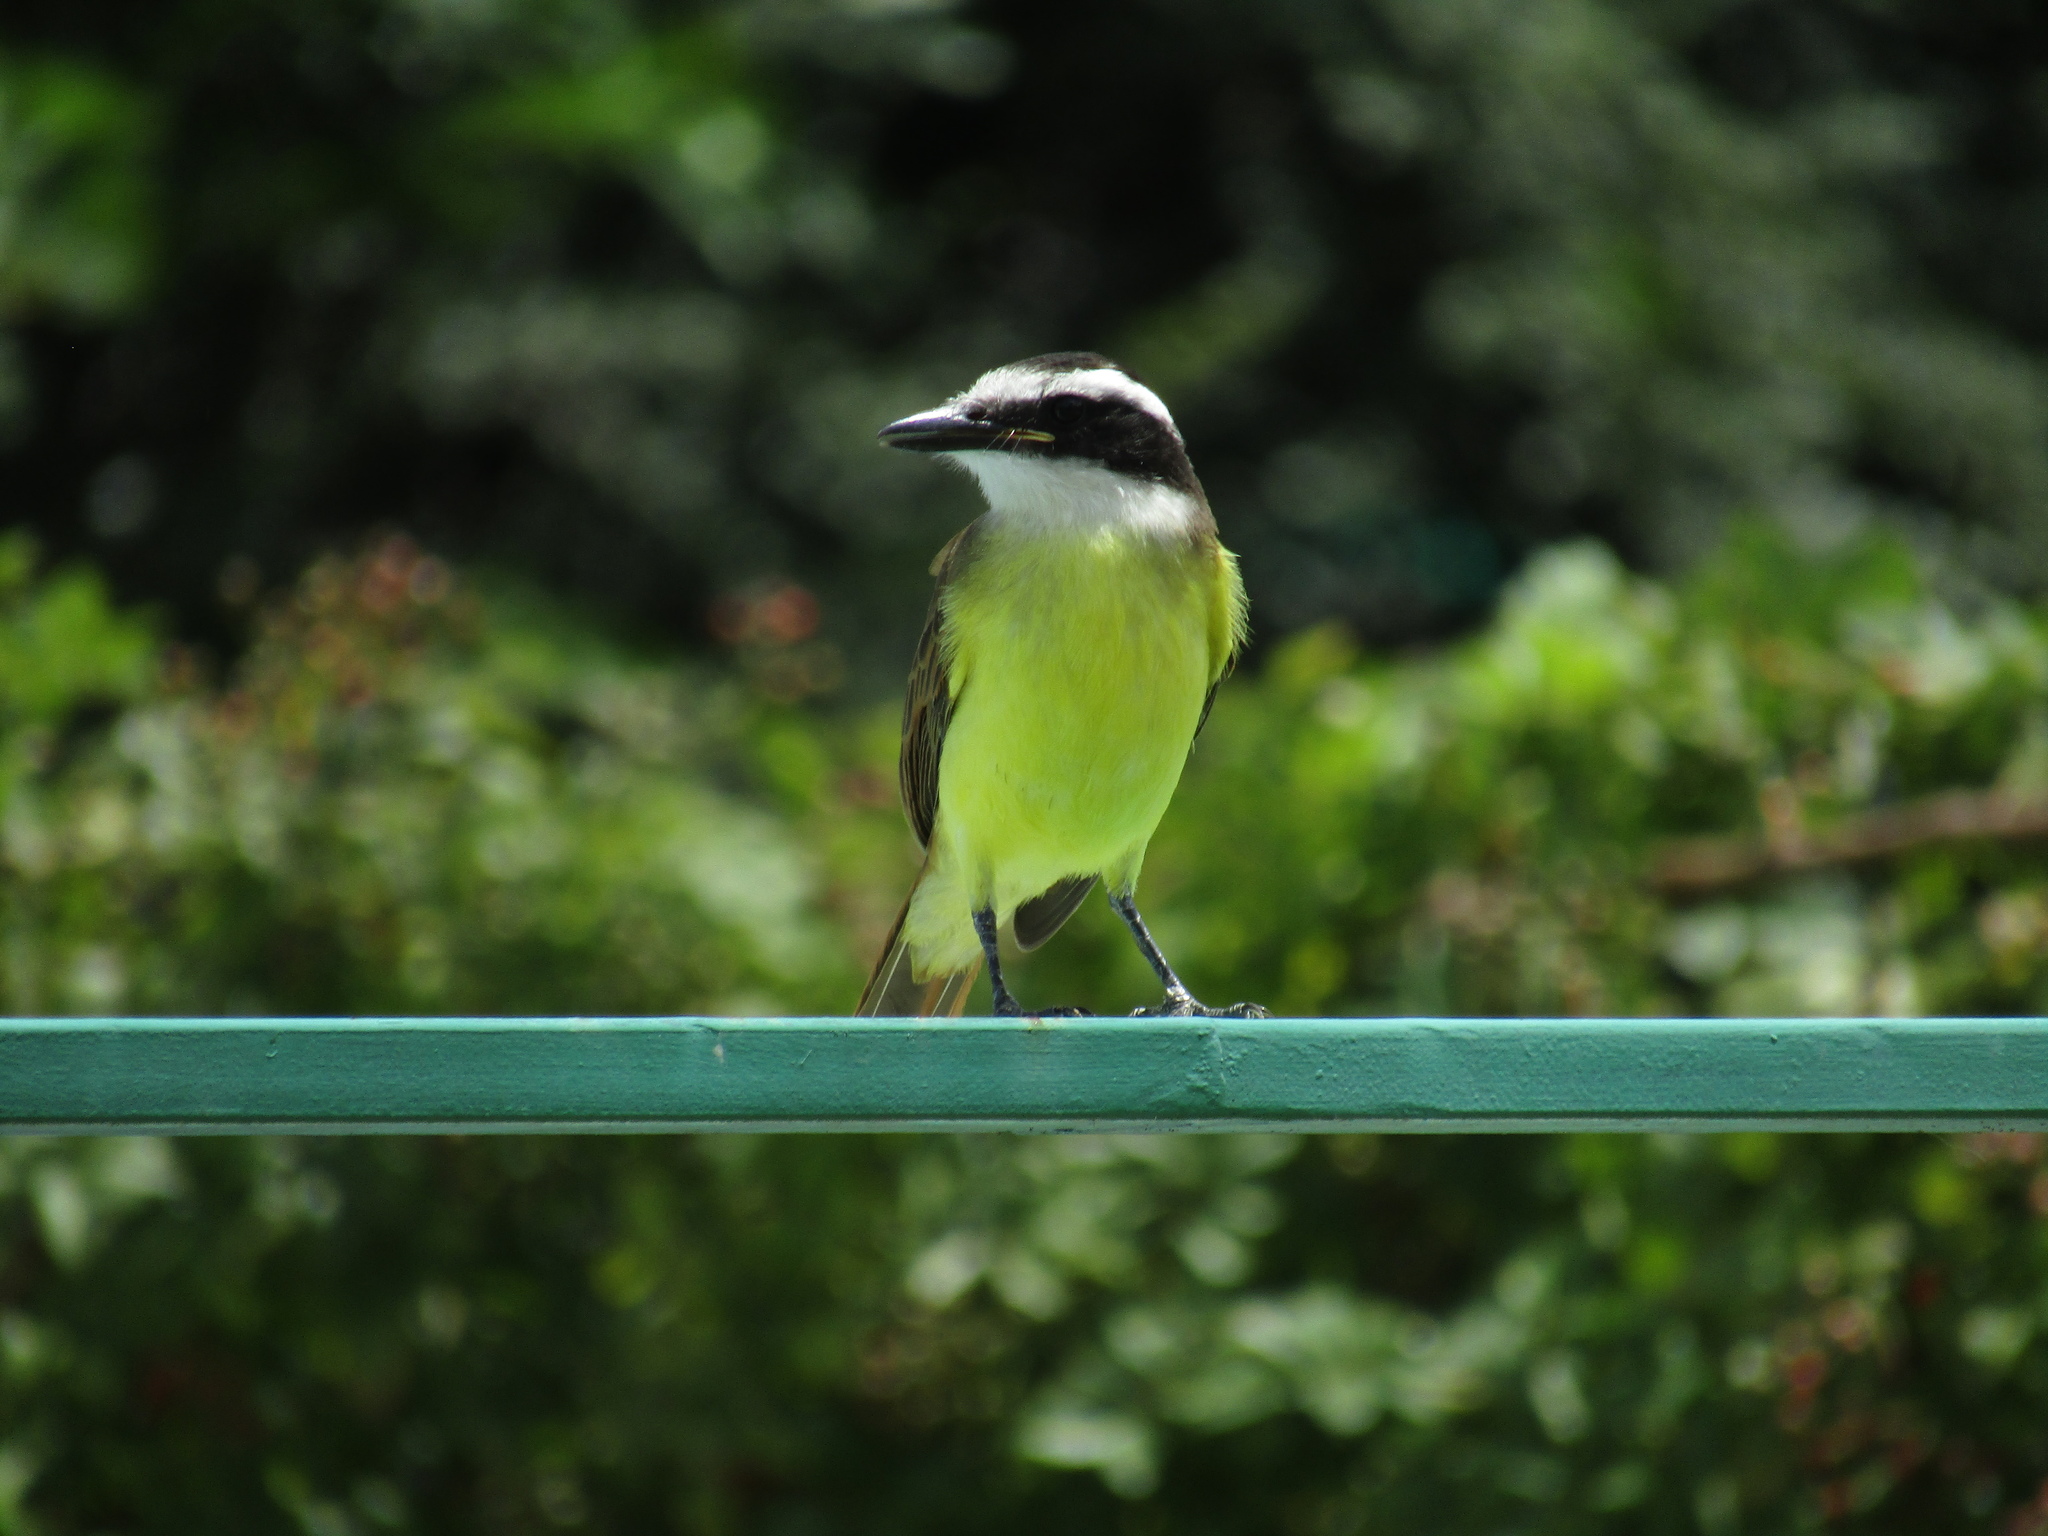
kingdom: Animalia
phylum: Chordata
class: Aves
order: Passeriformes
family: Tyrannidae
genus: Pitangus
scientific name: Pitangus sulphuratus
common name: Great kiskadee
